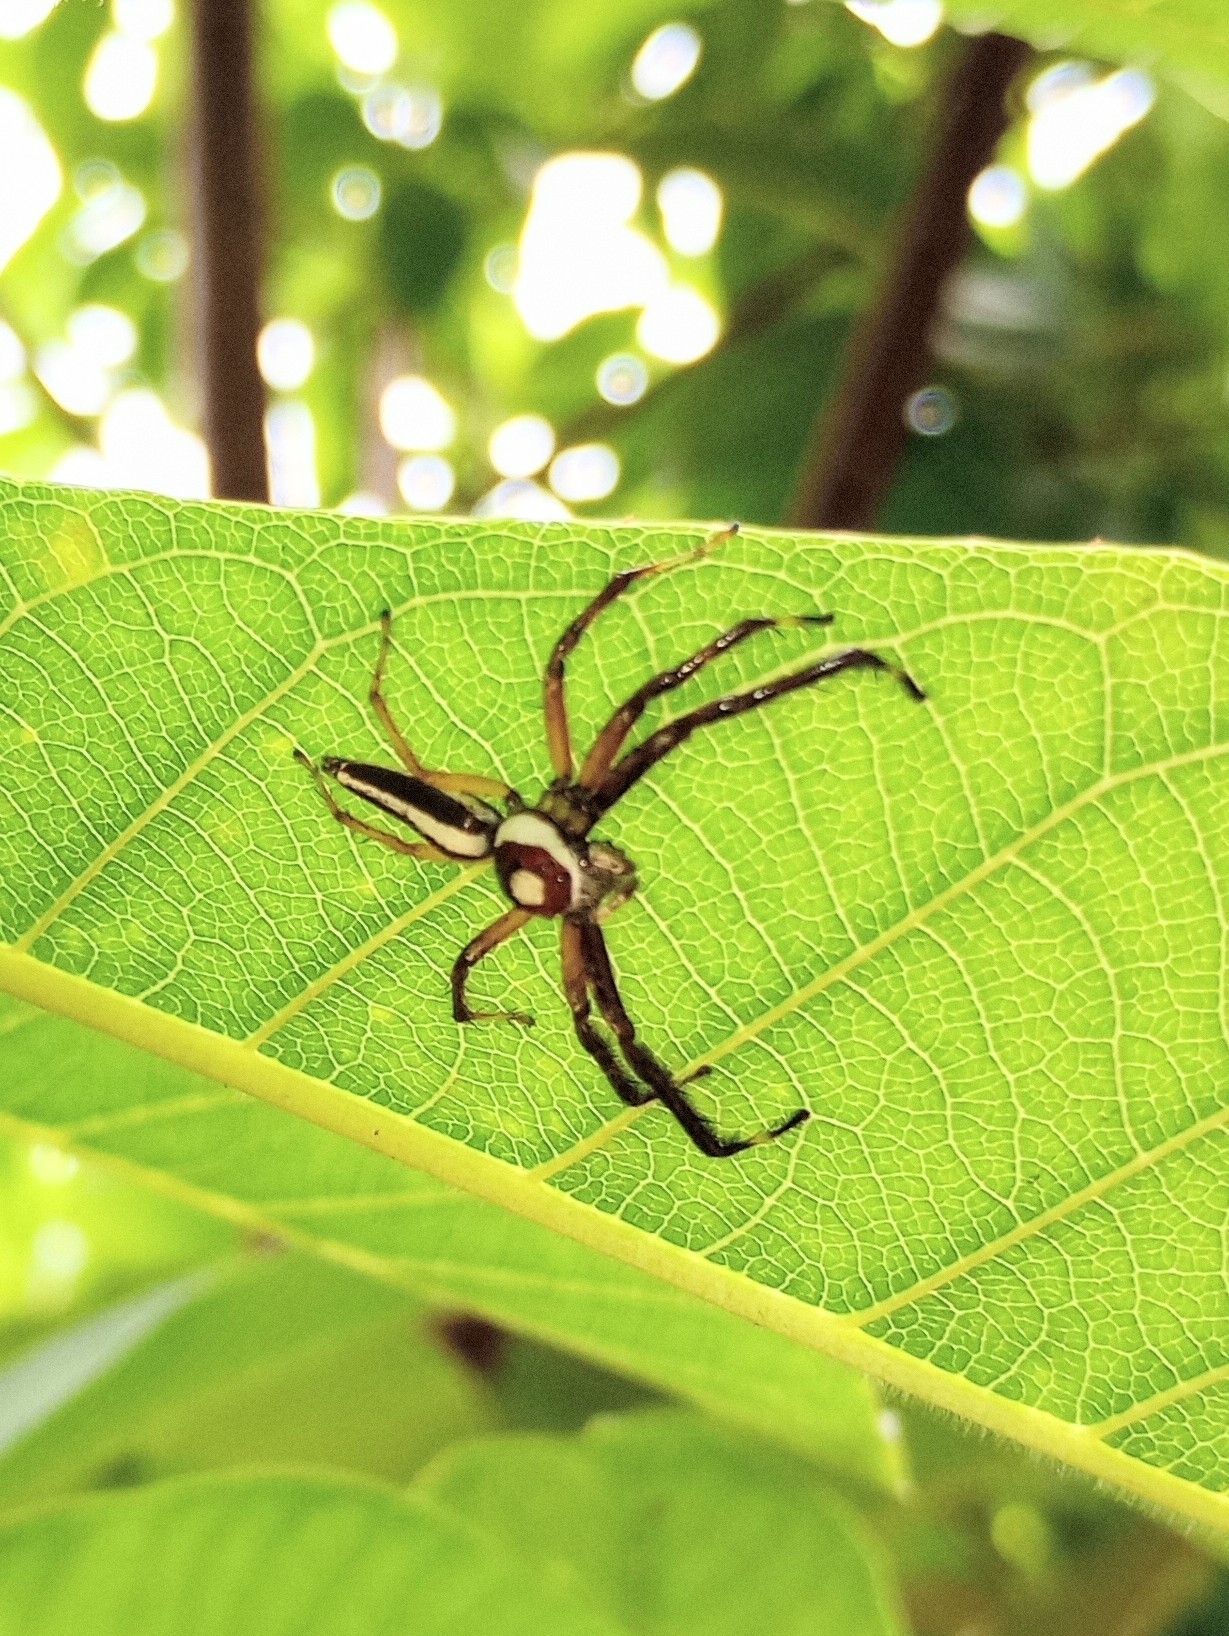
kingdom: Animalia
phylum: Arthropoda
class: Arachnida
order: Araneae
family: Salticidae
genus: Telamonia
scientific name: Telamonia dimidiata
